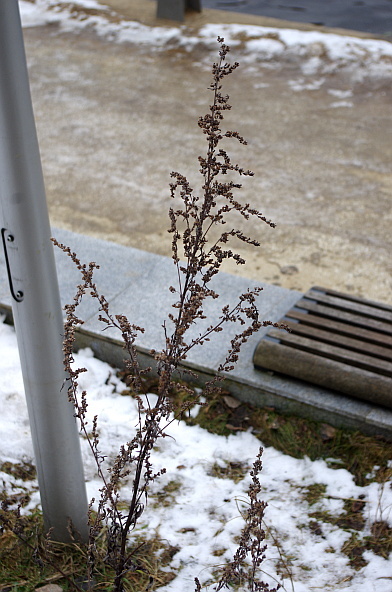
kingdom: Plantae
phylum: Tracheophyta
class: Magnoliopsida
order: Asterales
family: Asteraceae
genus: Artemisia
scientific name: Artemisia vulgaris
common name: Mugwort
